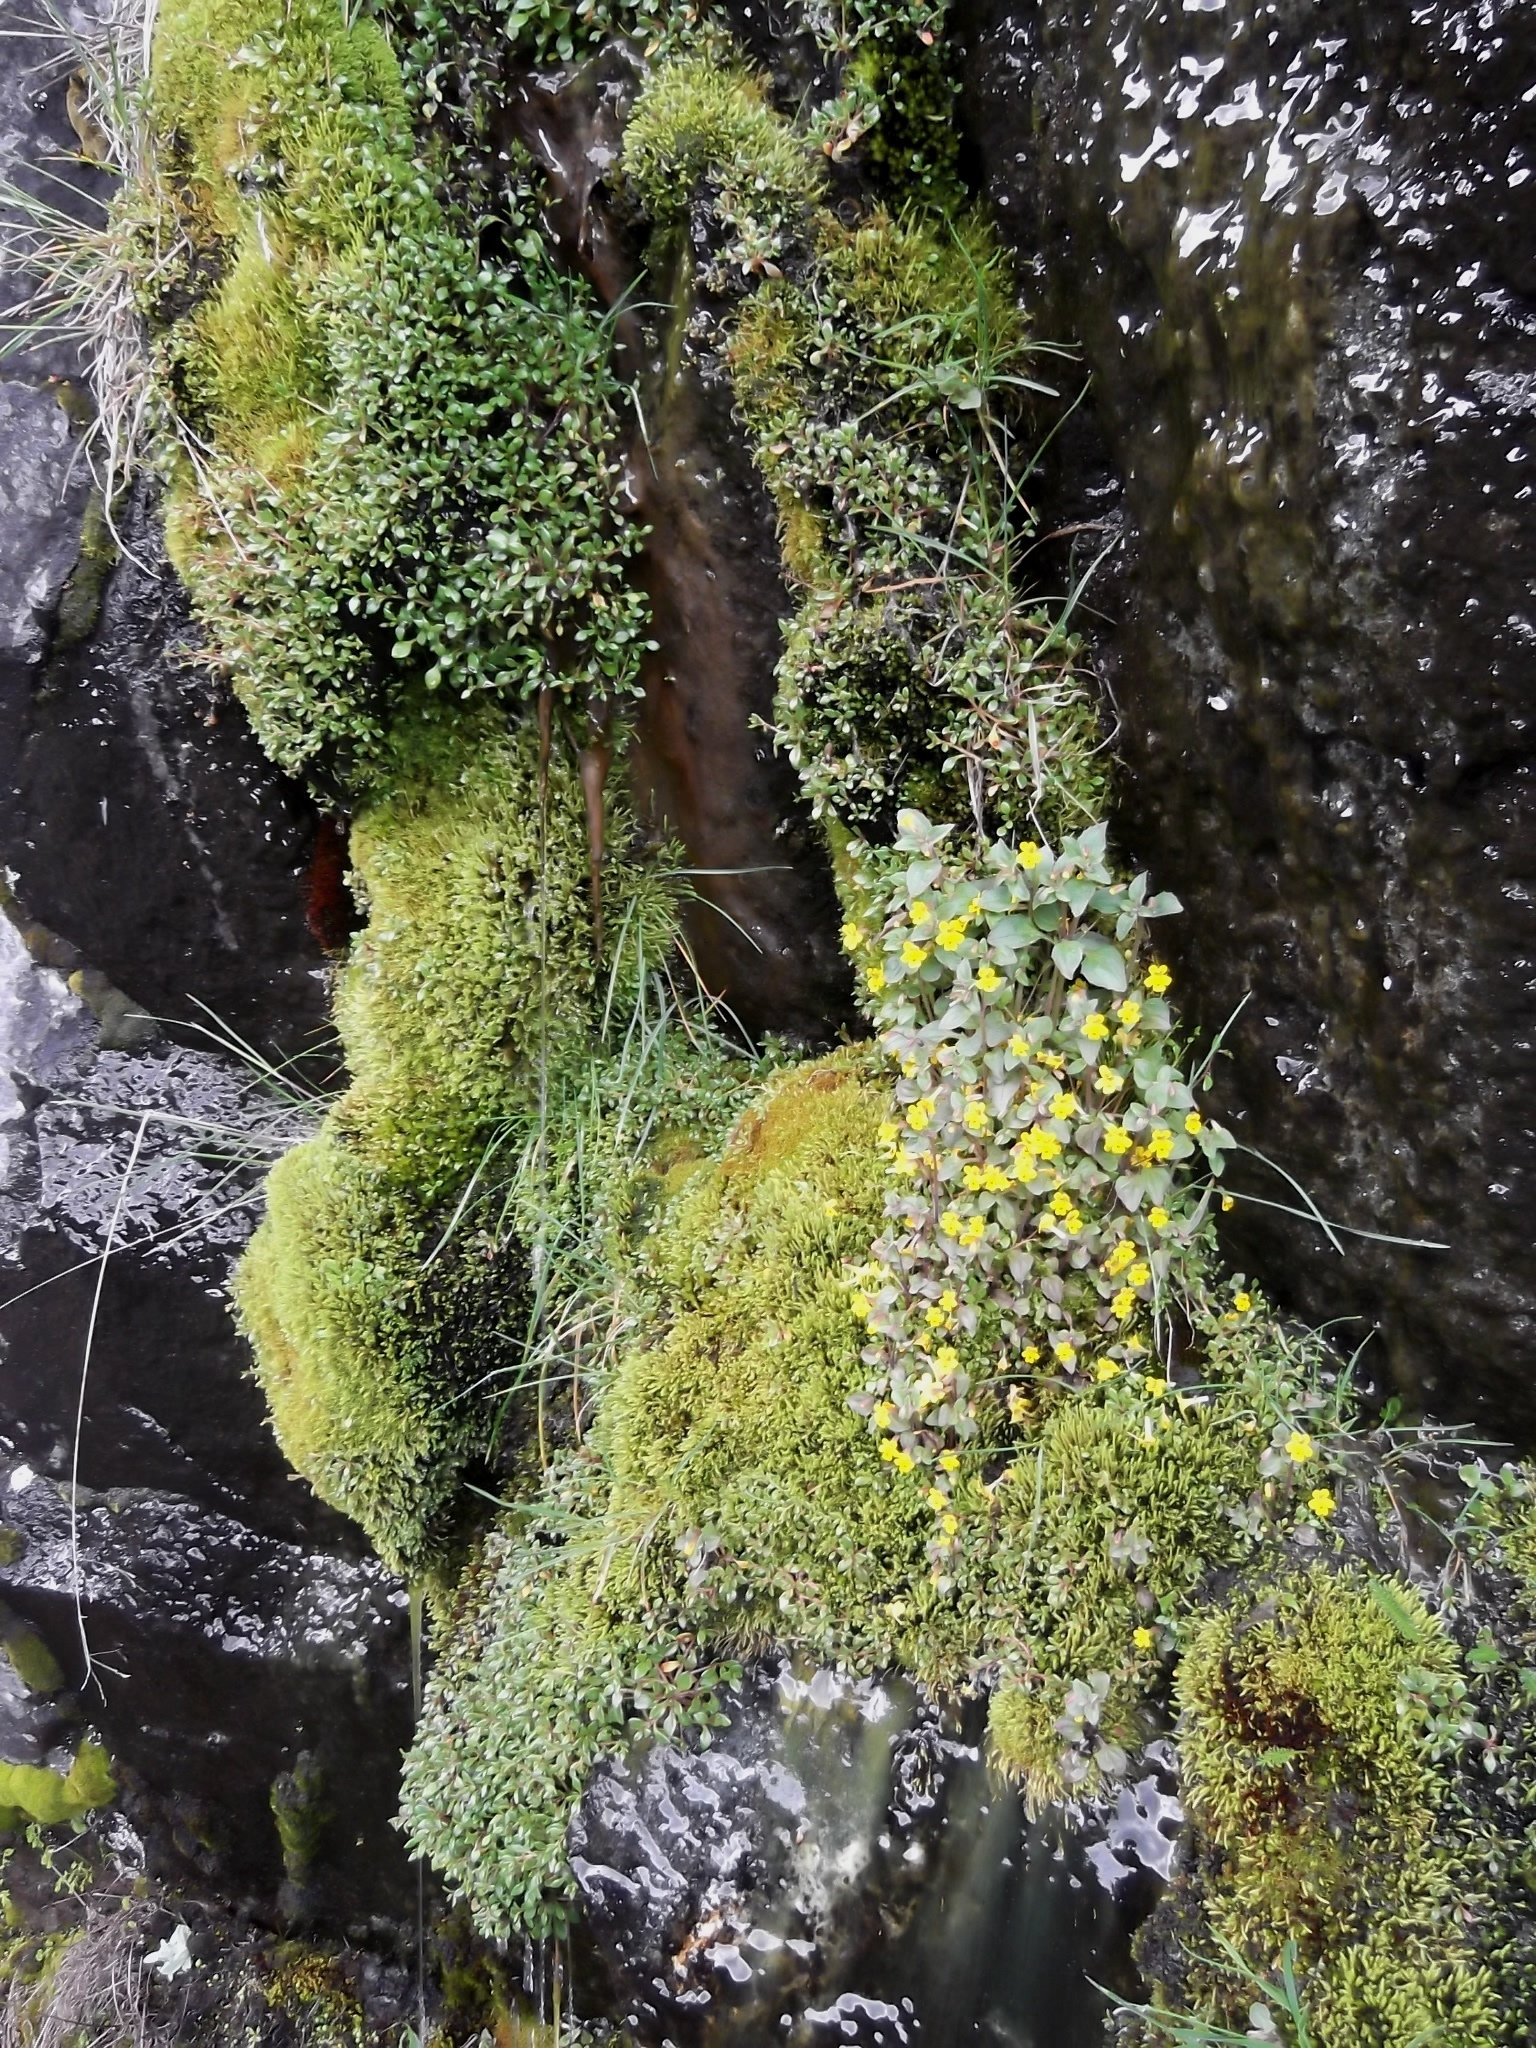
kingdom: Plantae
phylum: Tracheophyta
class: Magnoliopsida
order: Lamiales
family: Phrymaceae
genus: Erythranthe
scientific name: Erythranthe alsinoides
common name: Chickweed monkeyflower
